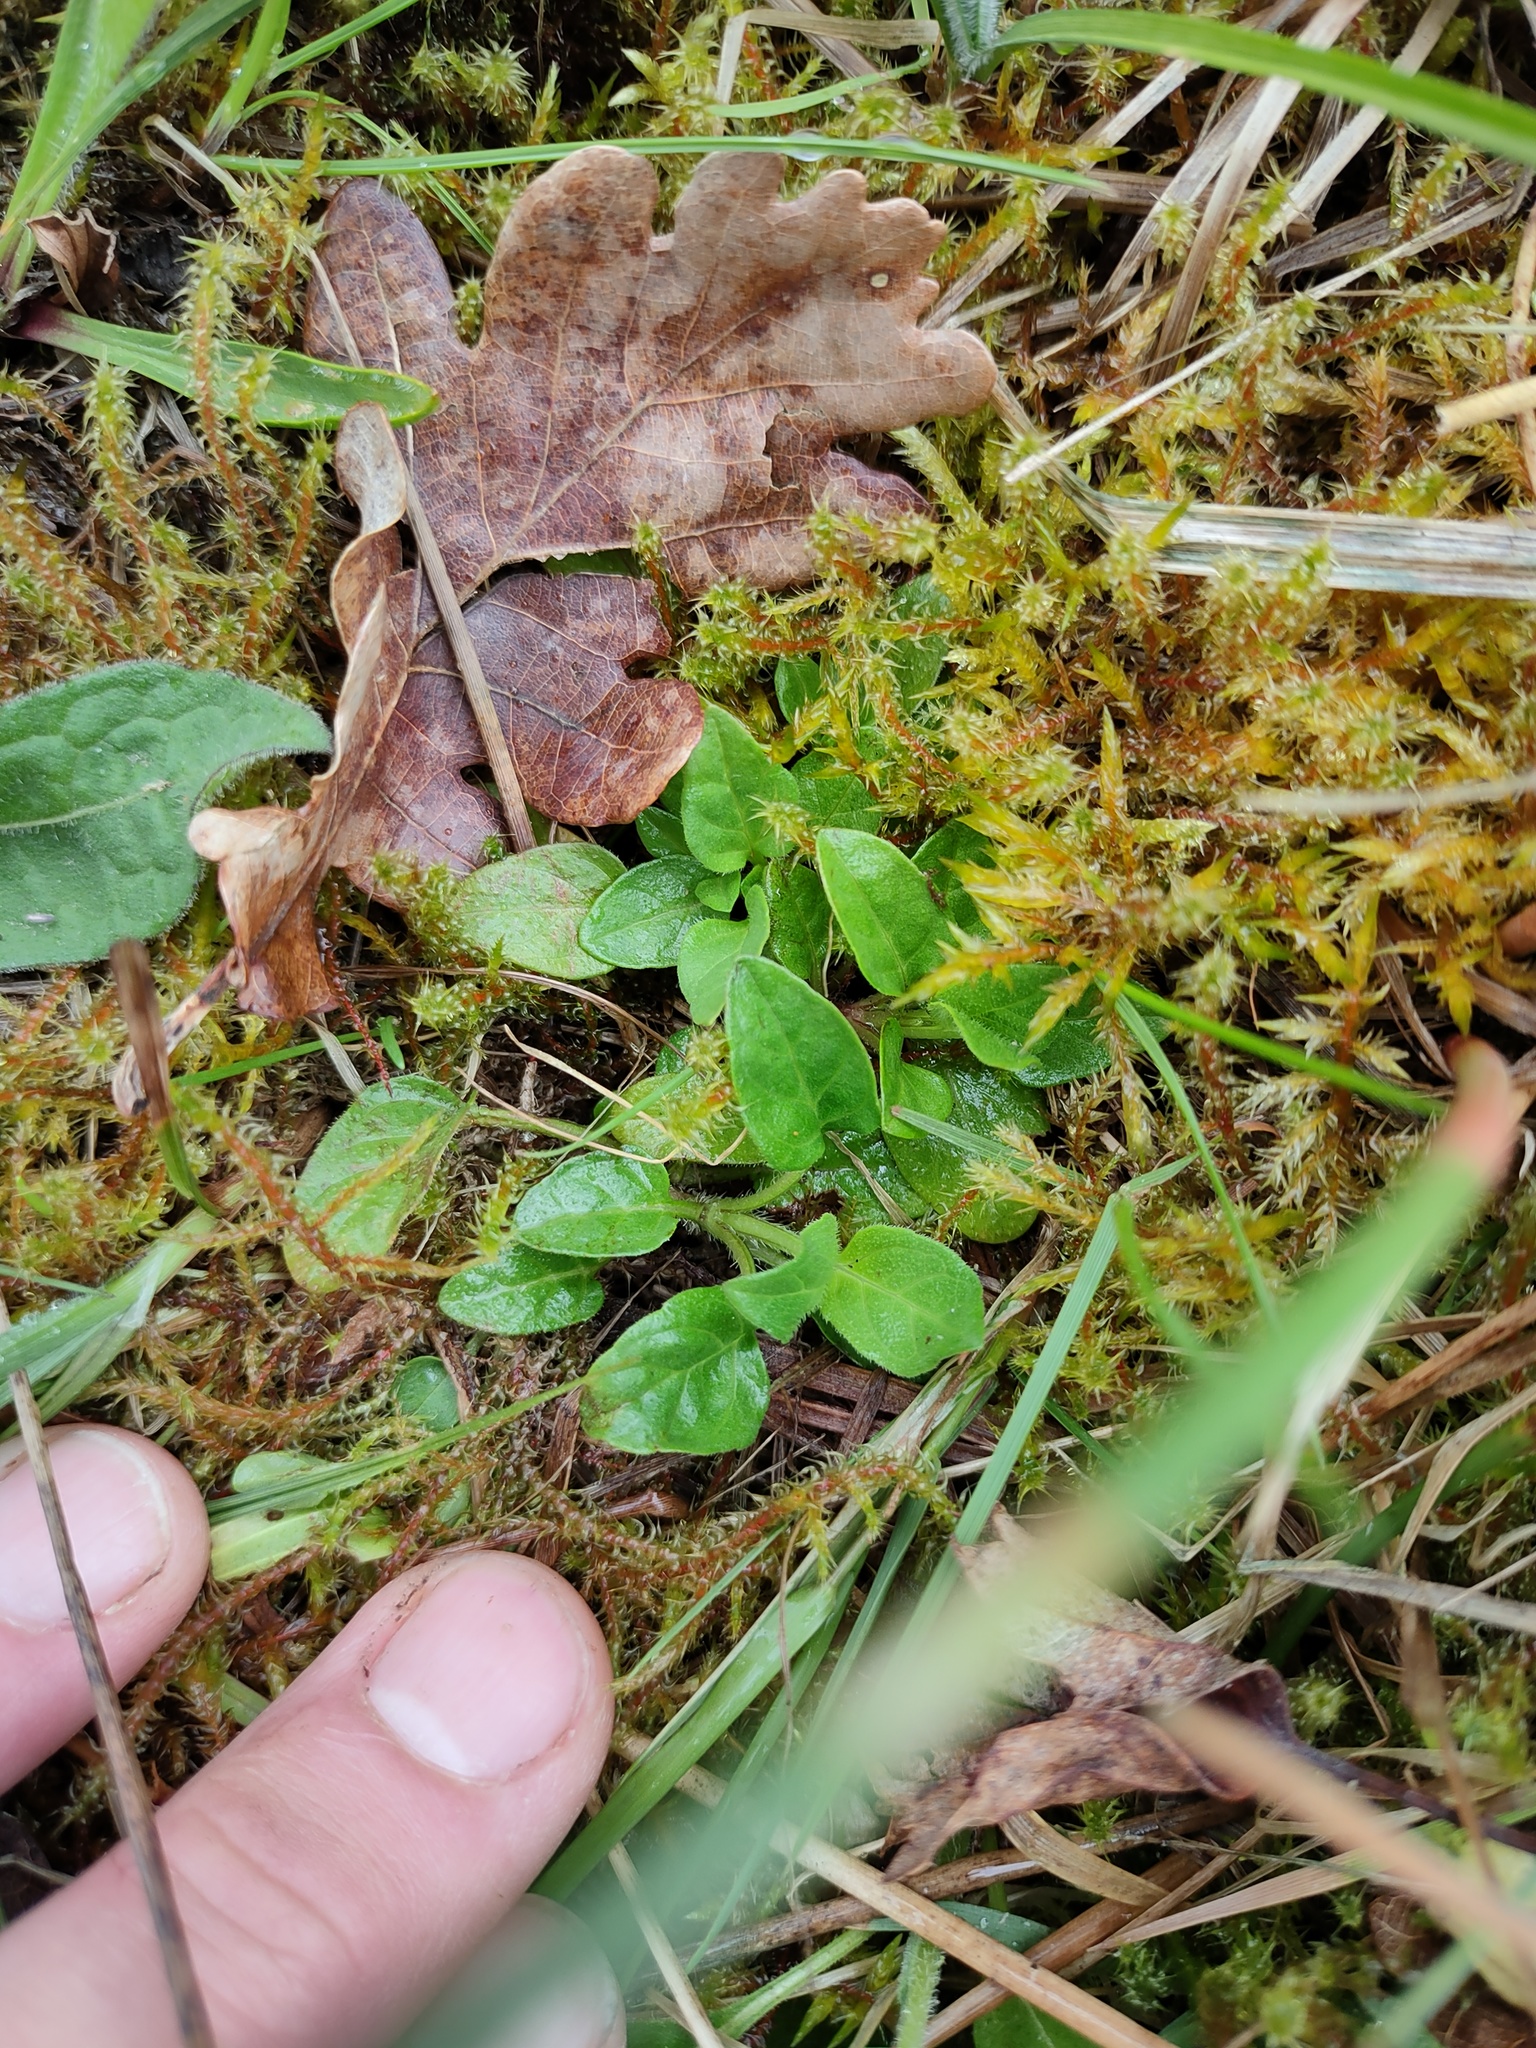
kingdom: Plantae
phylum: Tracheophyta
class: Magnoliopsida
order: Lamiales
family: Lamiaceae
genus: Prunella
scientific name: Prunella vulgaris
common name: Heal-all
